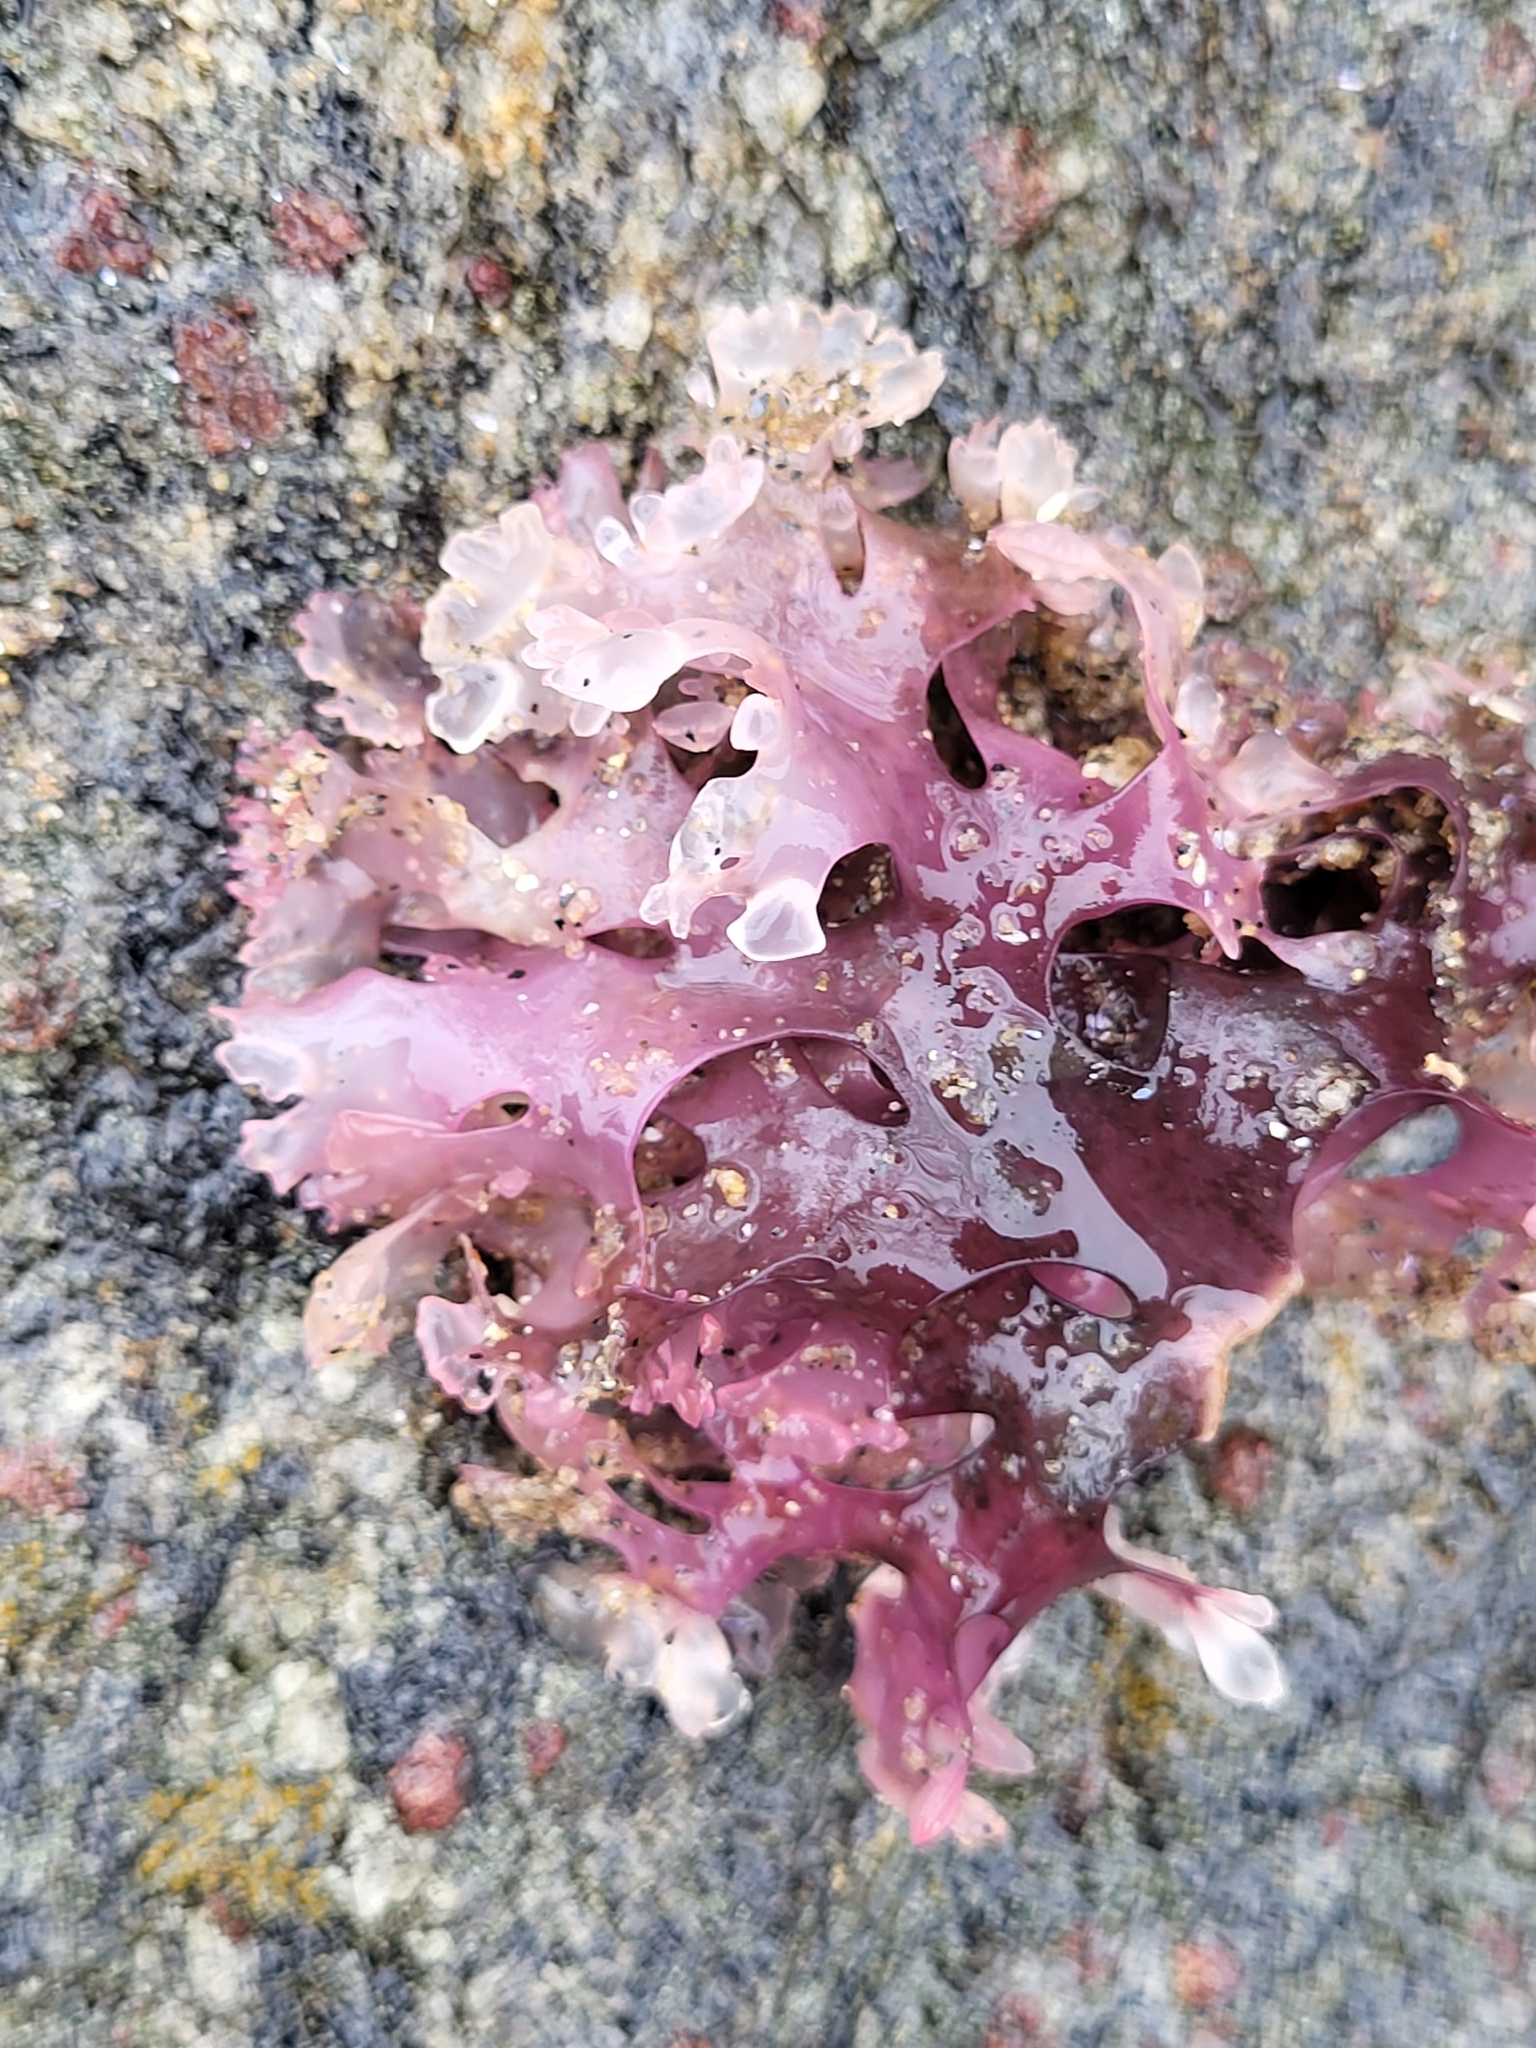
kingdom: Plantae
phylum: Rhodophyta
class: Florideophyceae
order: Gigartinales
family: Gigartinaceae
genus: Chondrus
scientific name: Chondrus crispus
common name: Carrageen
